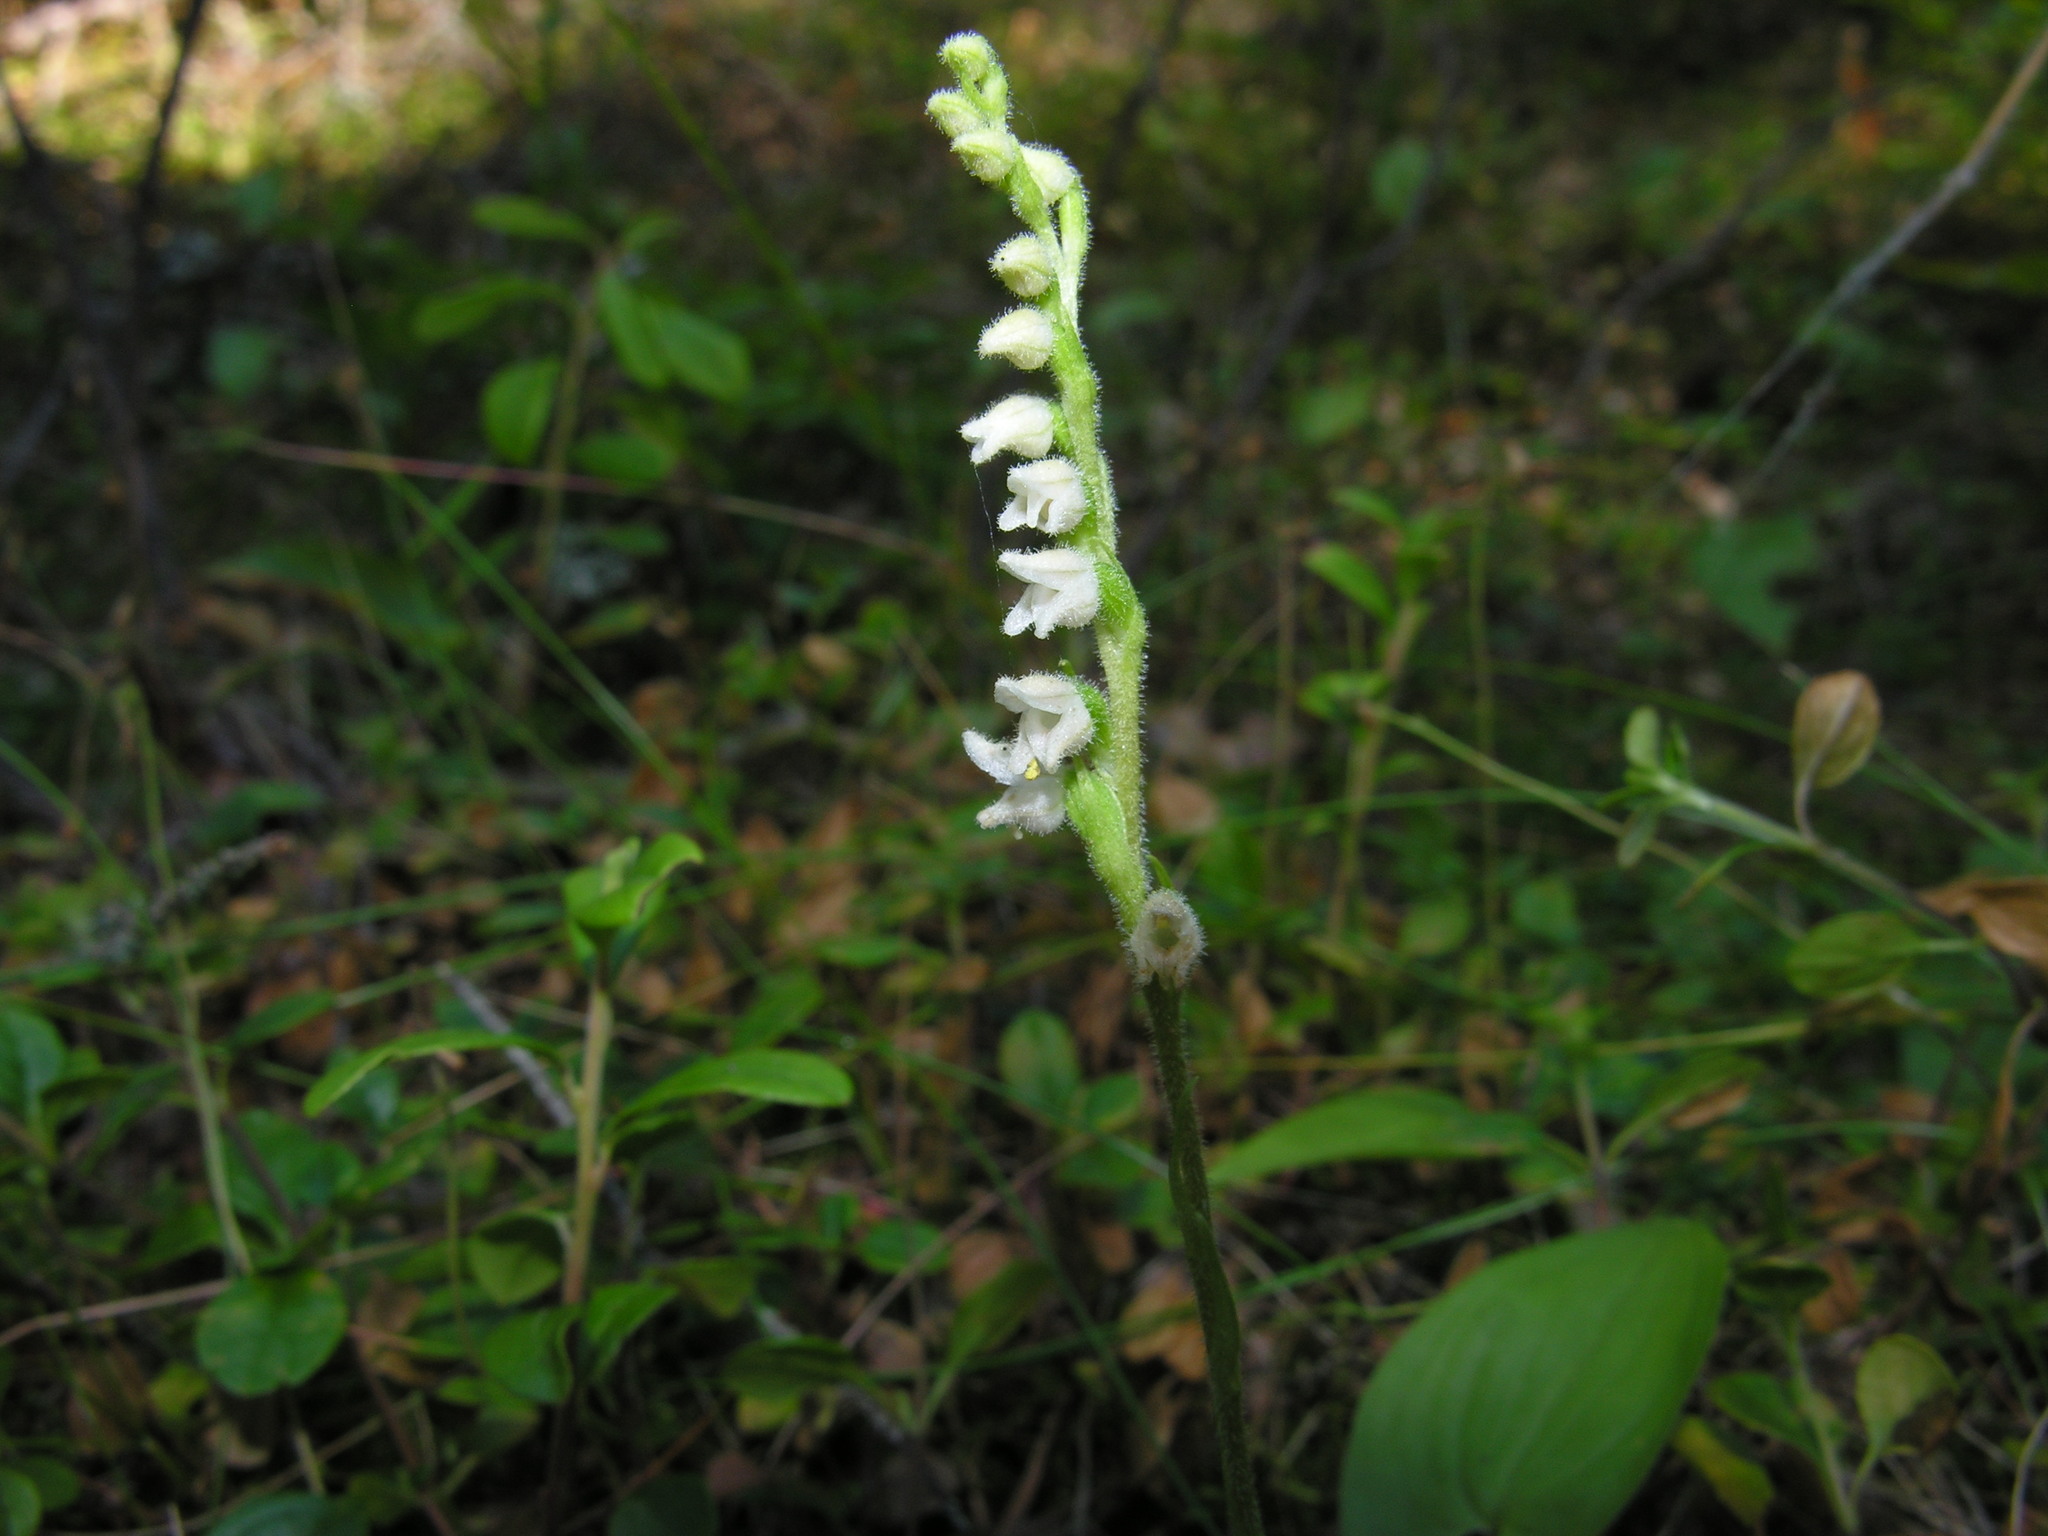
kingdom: Plantae
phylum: Tracheophyta
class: Liliopsida
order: Asparagales
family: Orchidaceae
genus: Goodyera
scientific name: Goodyera repens
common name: Creeping lady's-tresses
